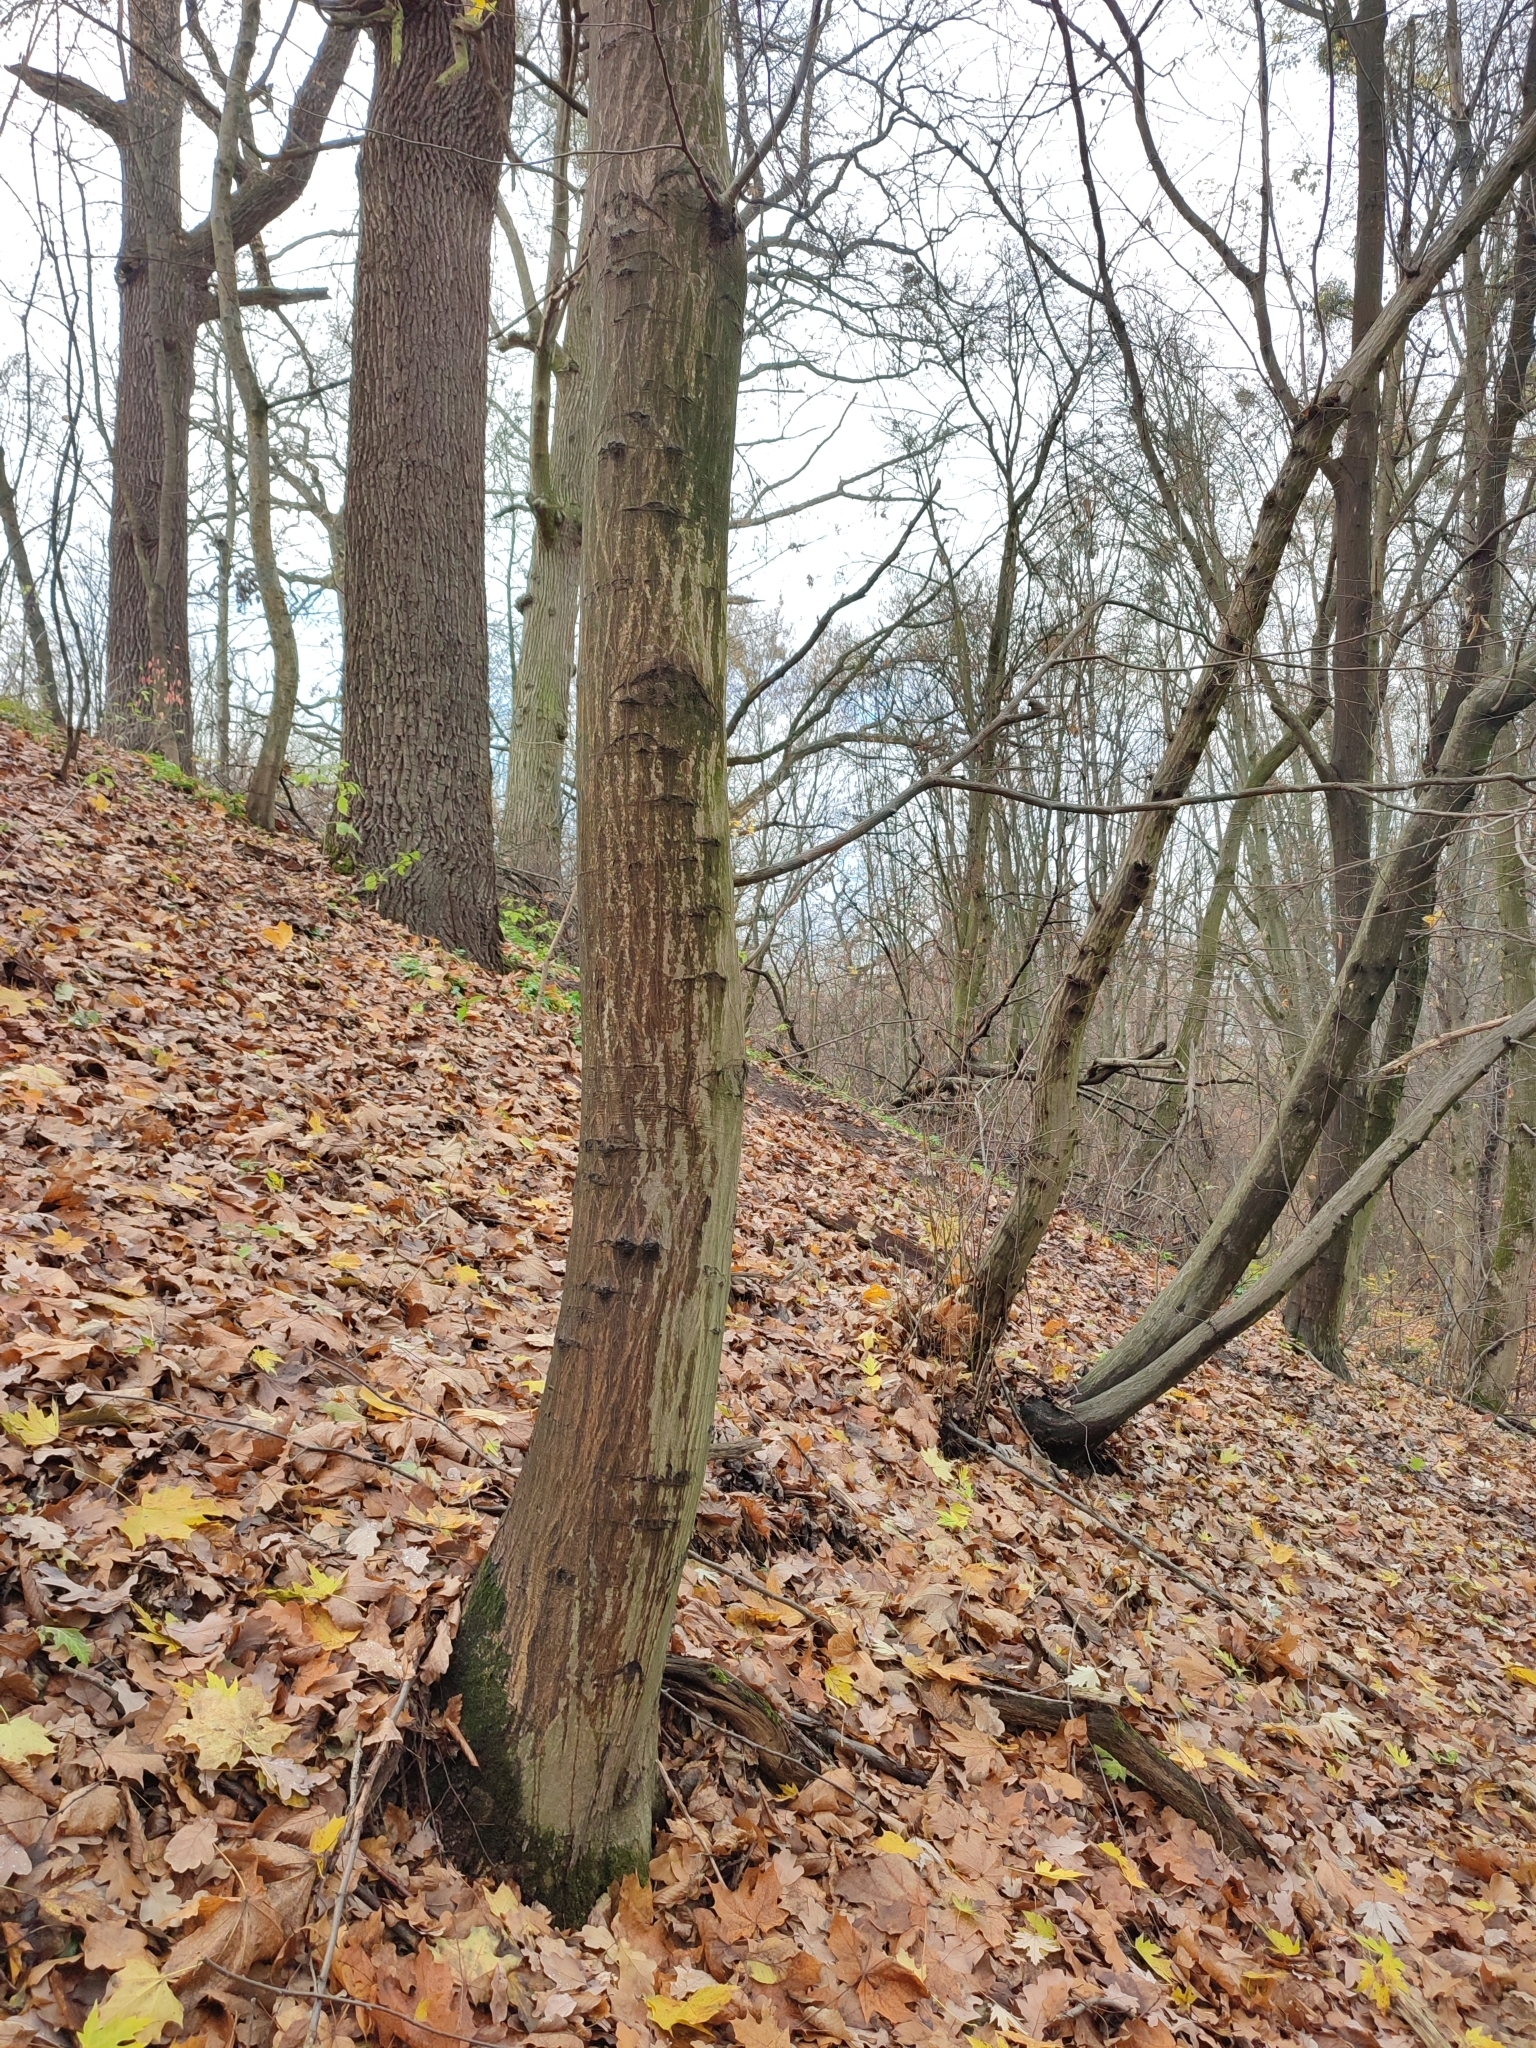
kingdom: Plantae
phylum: Tracheophyta
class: Magnoliopsida
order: Fagales
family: Betulaceae
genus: Carpinus
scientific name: Carpinus betulus
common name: Hornbeam
